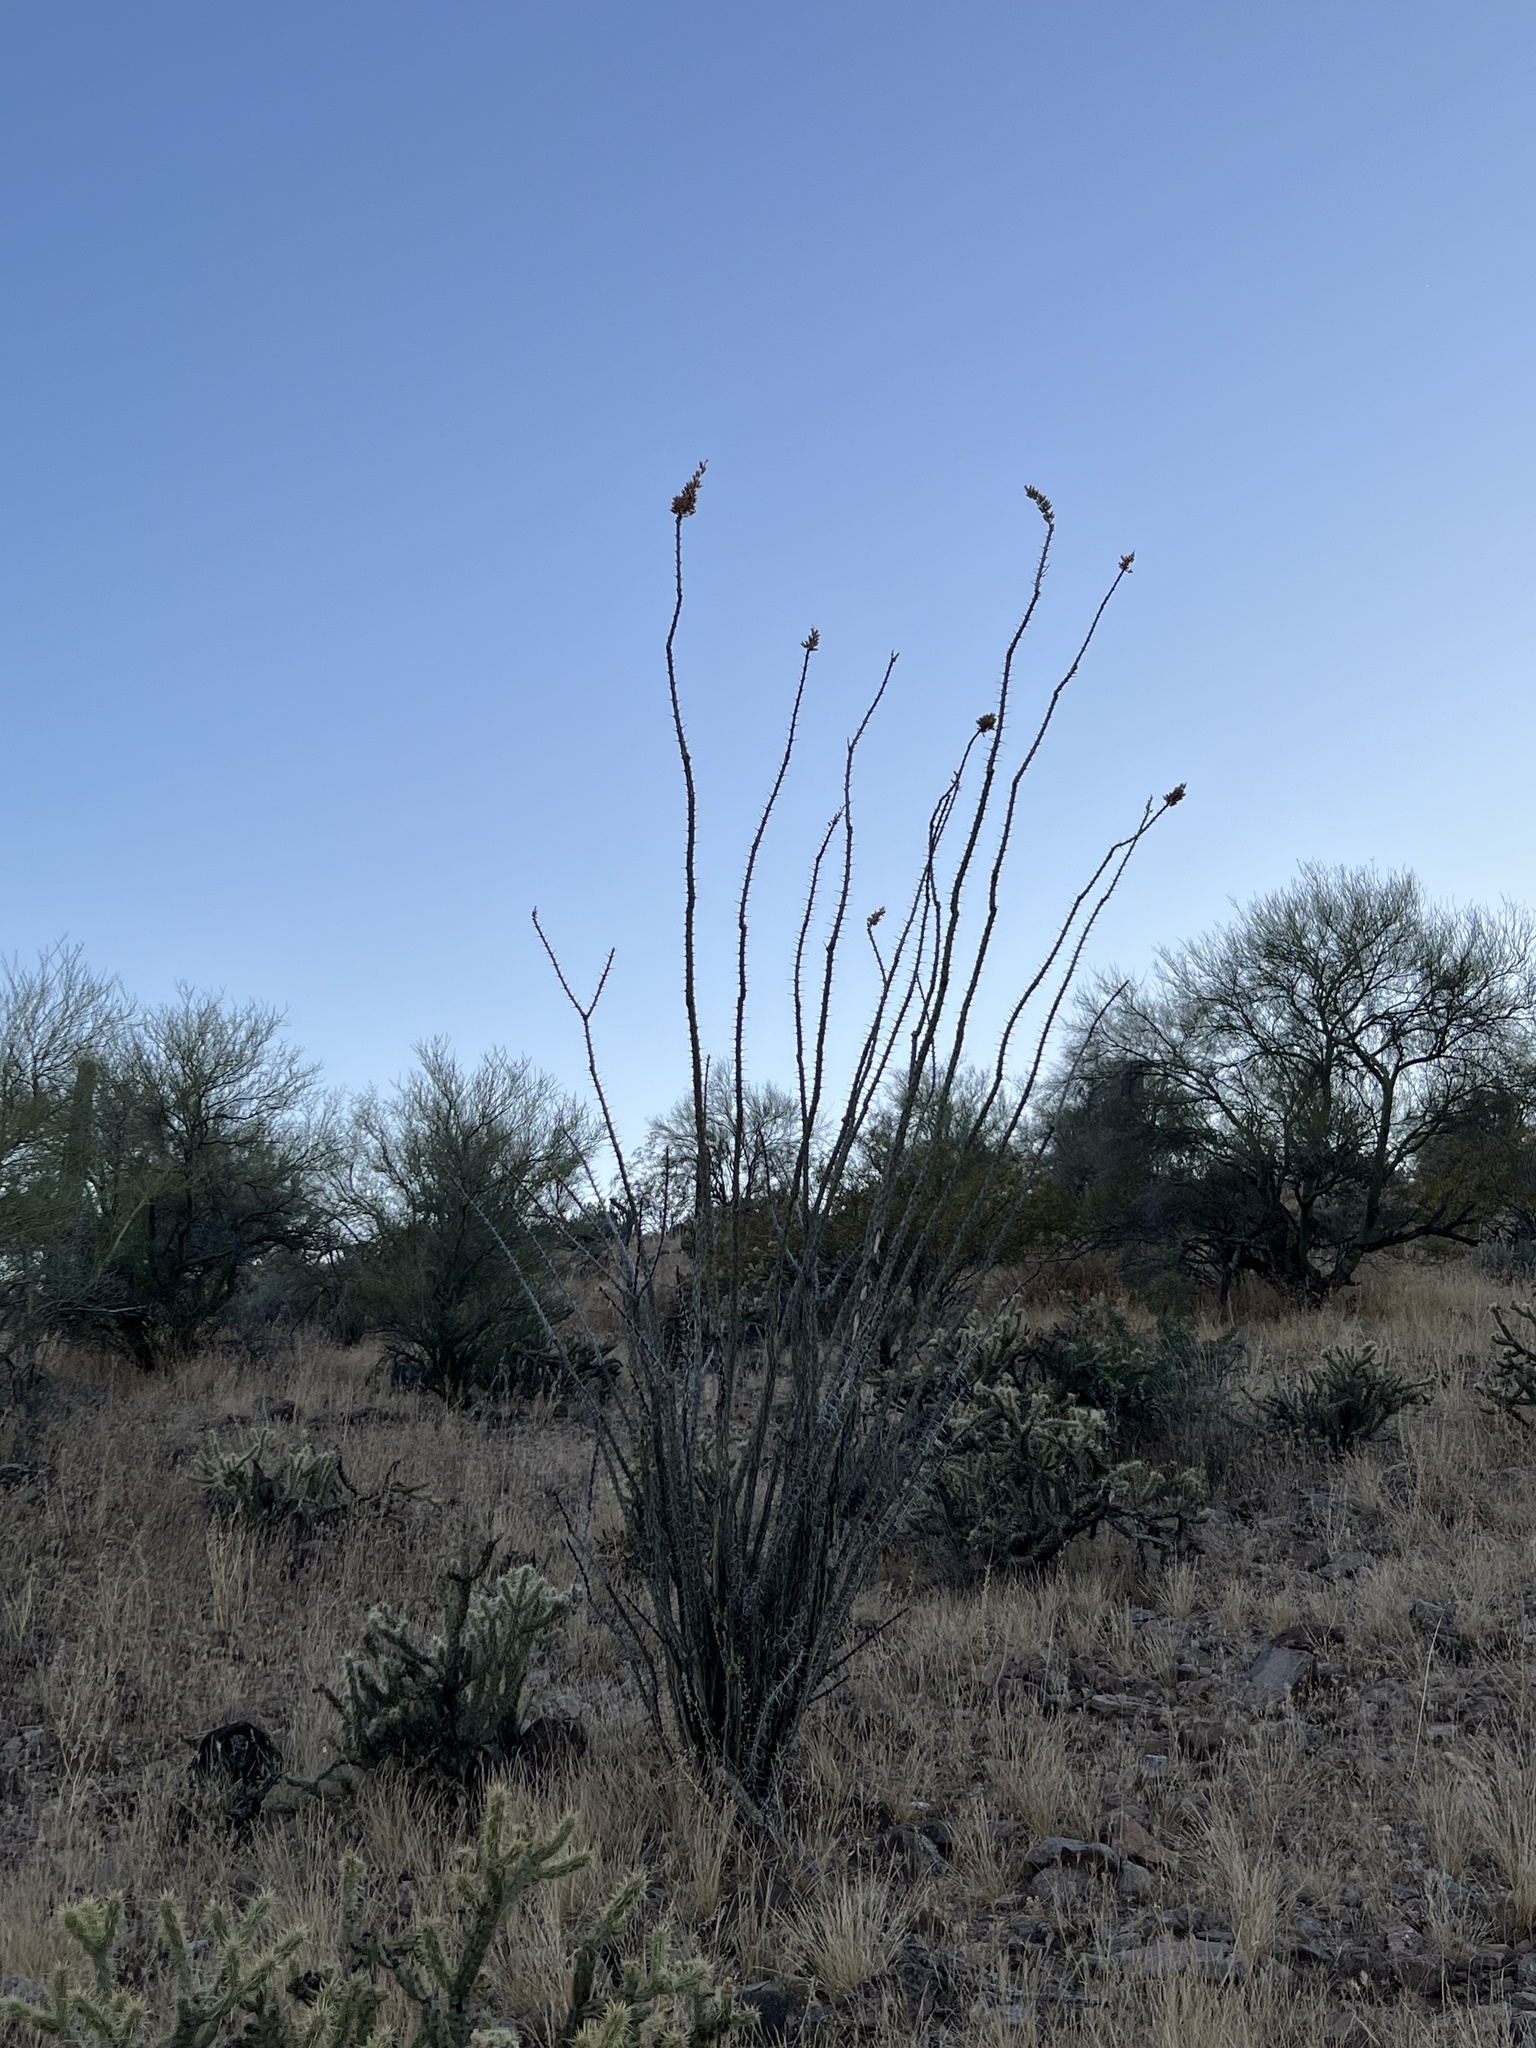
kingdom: Plantae
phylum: Tracheophyta
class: Magnoliopsida
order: Ericales
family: Fouquieriaceae
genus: Fouquieria
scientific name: Fouquieria splendens
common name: Vine-cactus
